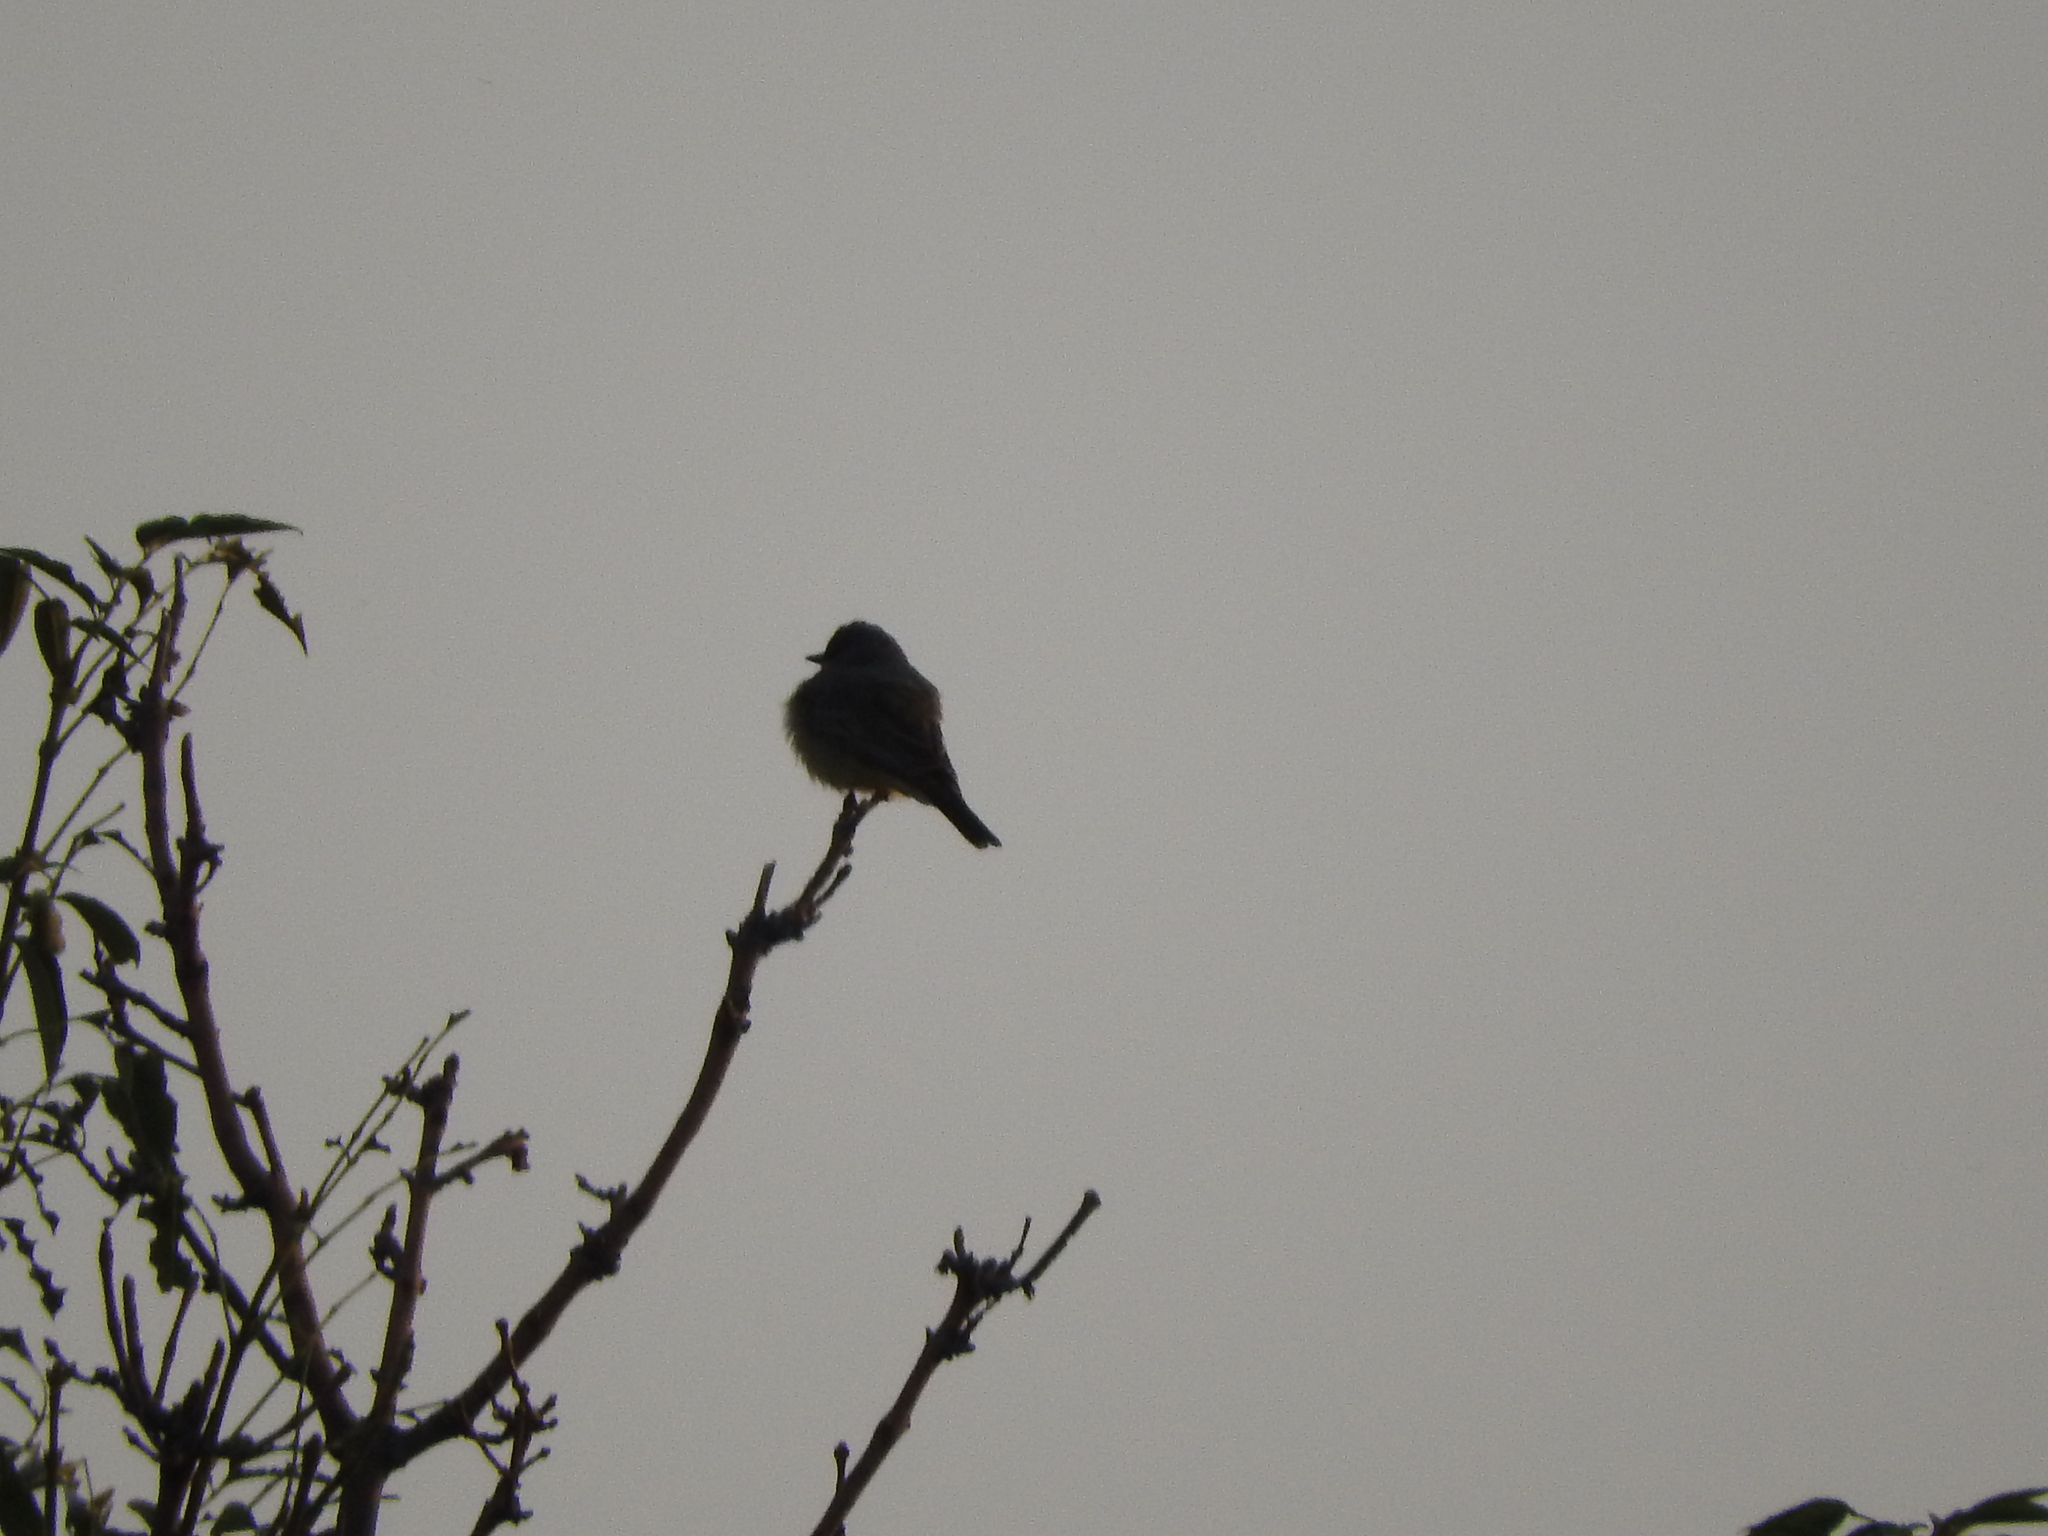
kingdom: Animalia
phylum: Chordata
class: Aves
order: Passeriformes
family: Tyrannidae
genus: Tyrannus
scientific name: Tyrannus vociferans
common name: Cassin's kingbird
